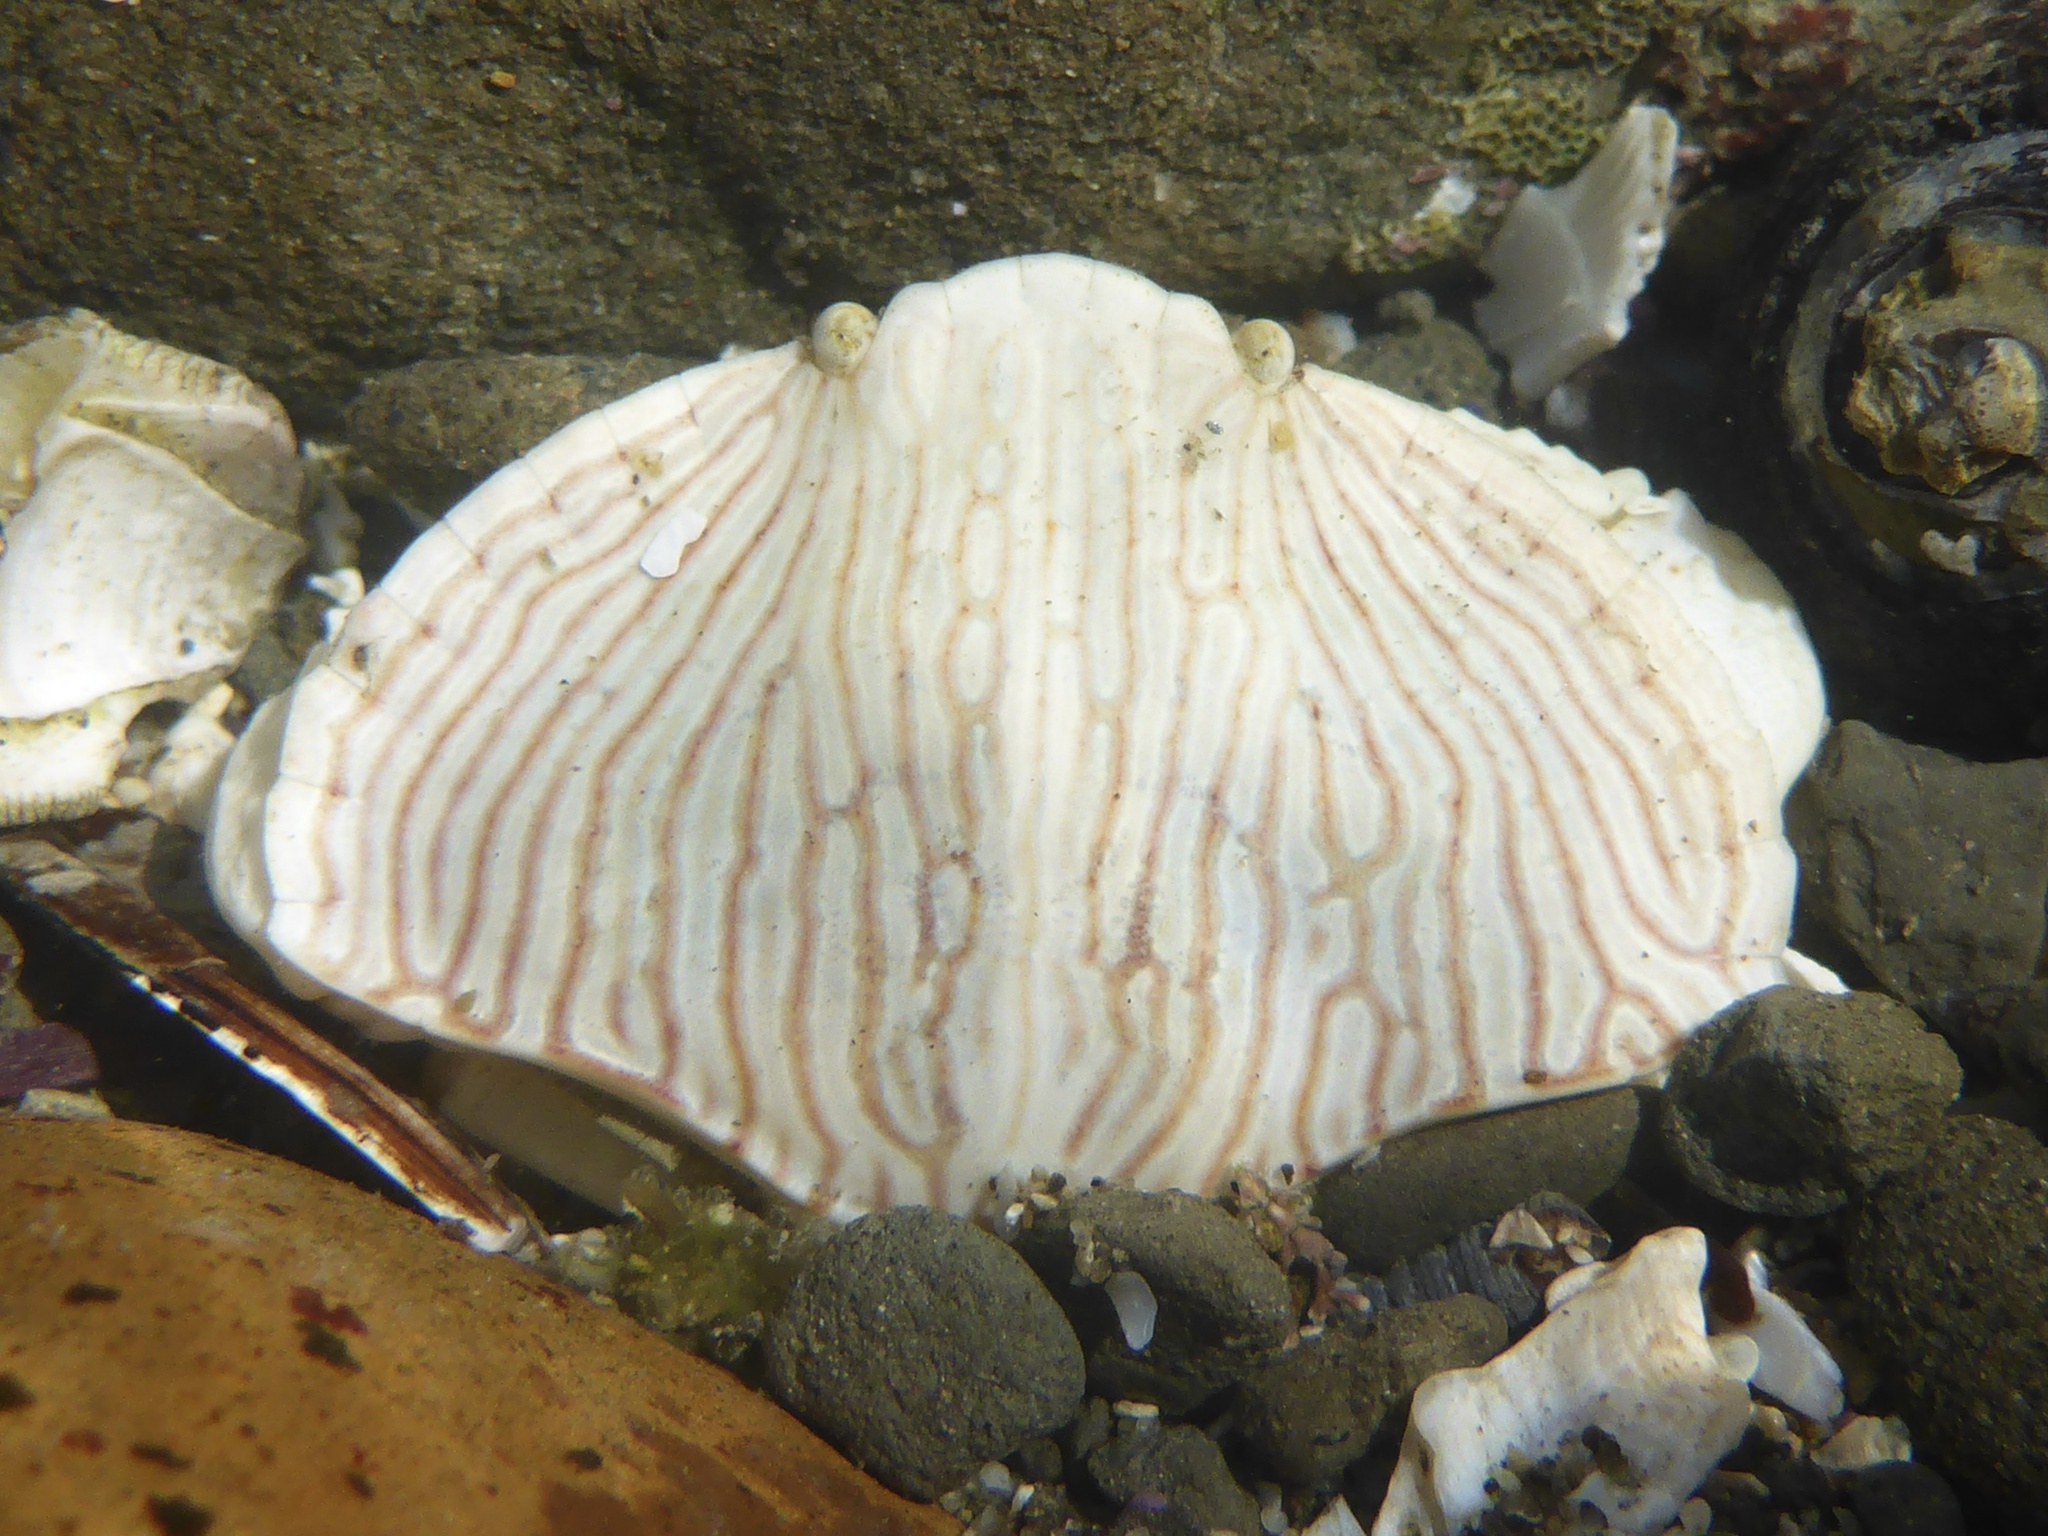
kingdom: Animalia
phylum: Arthropoda
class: Malacostraca
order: Decapoda
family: Cancridae
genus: Cancer
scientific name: Cancer productus
